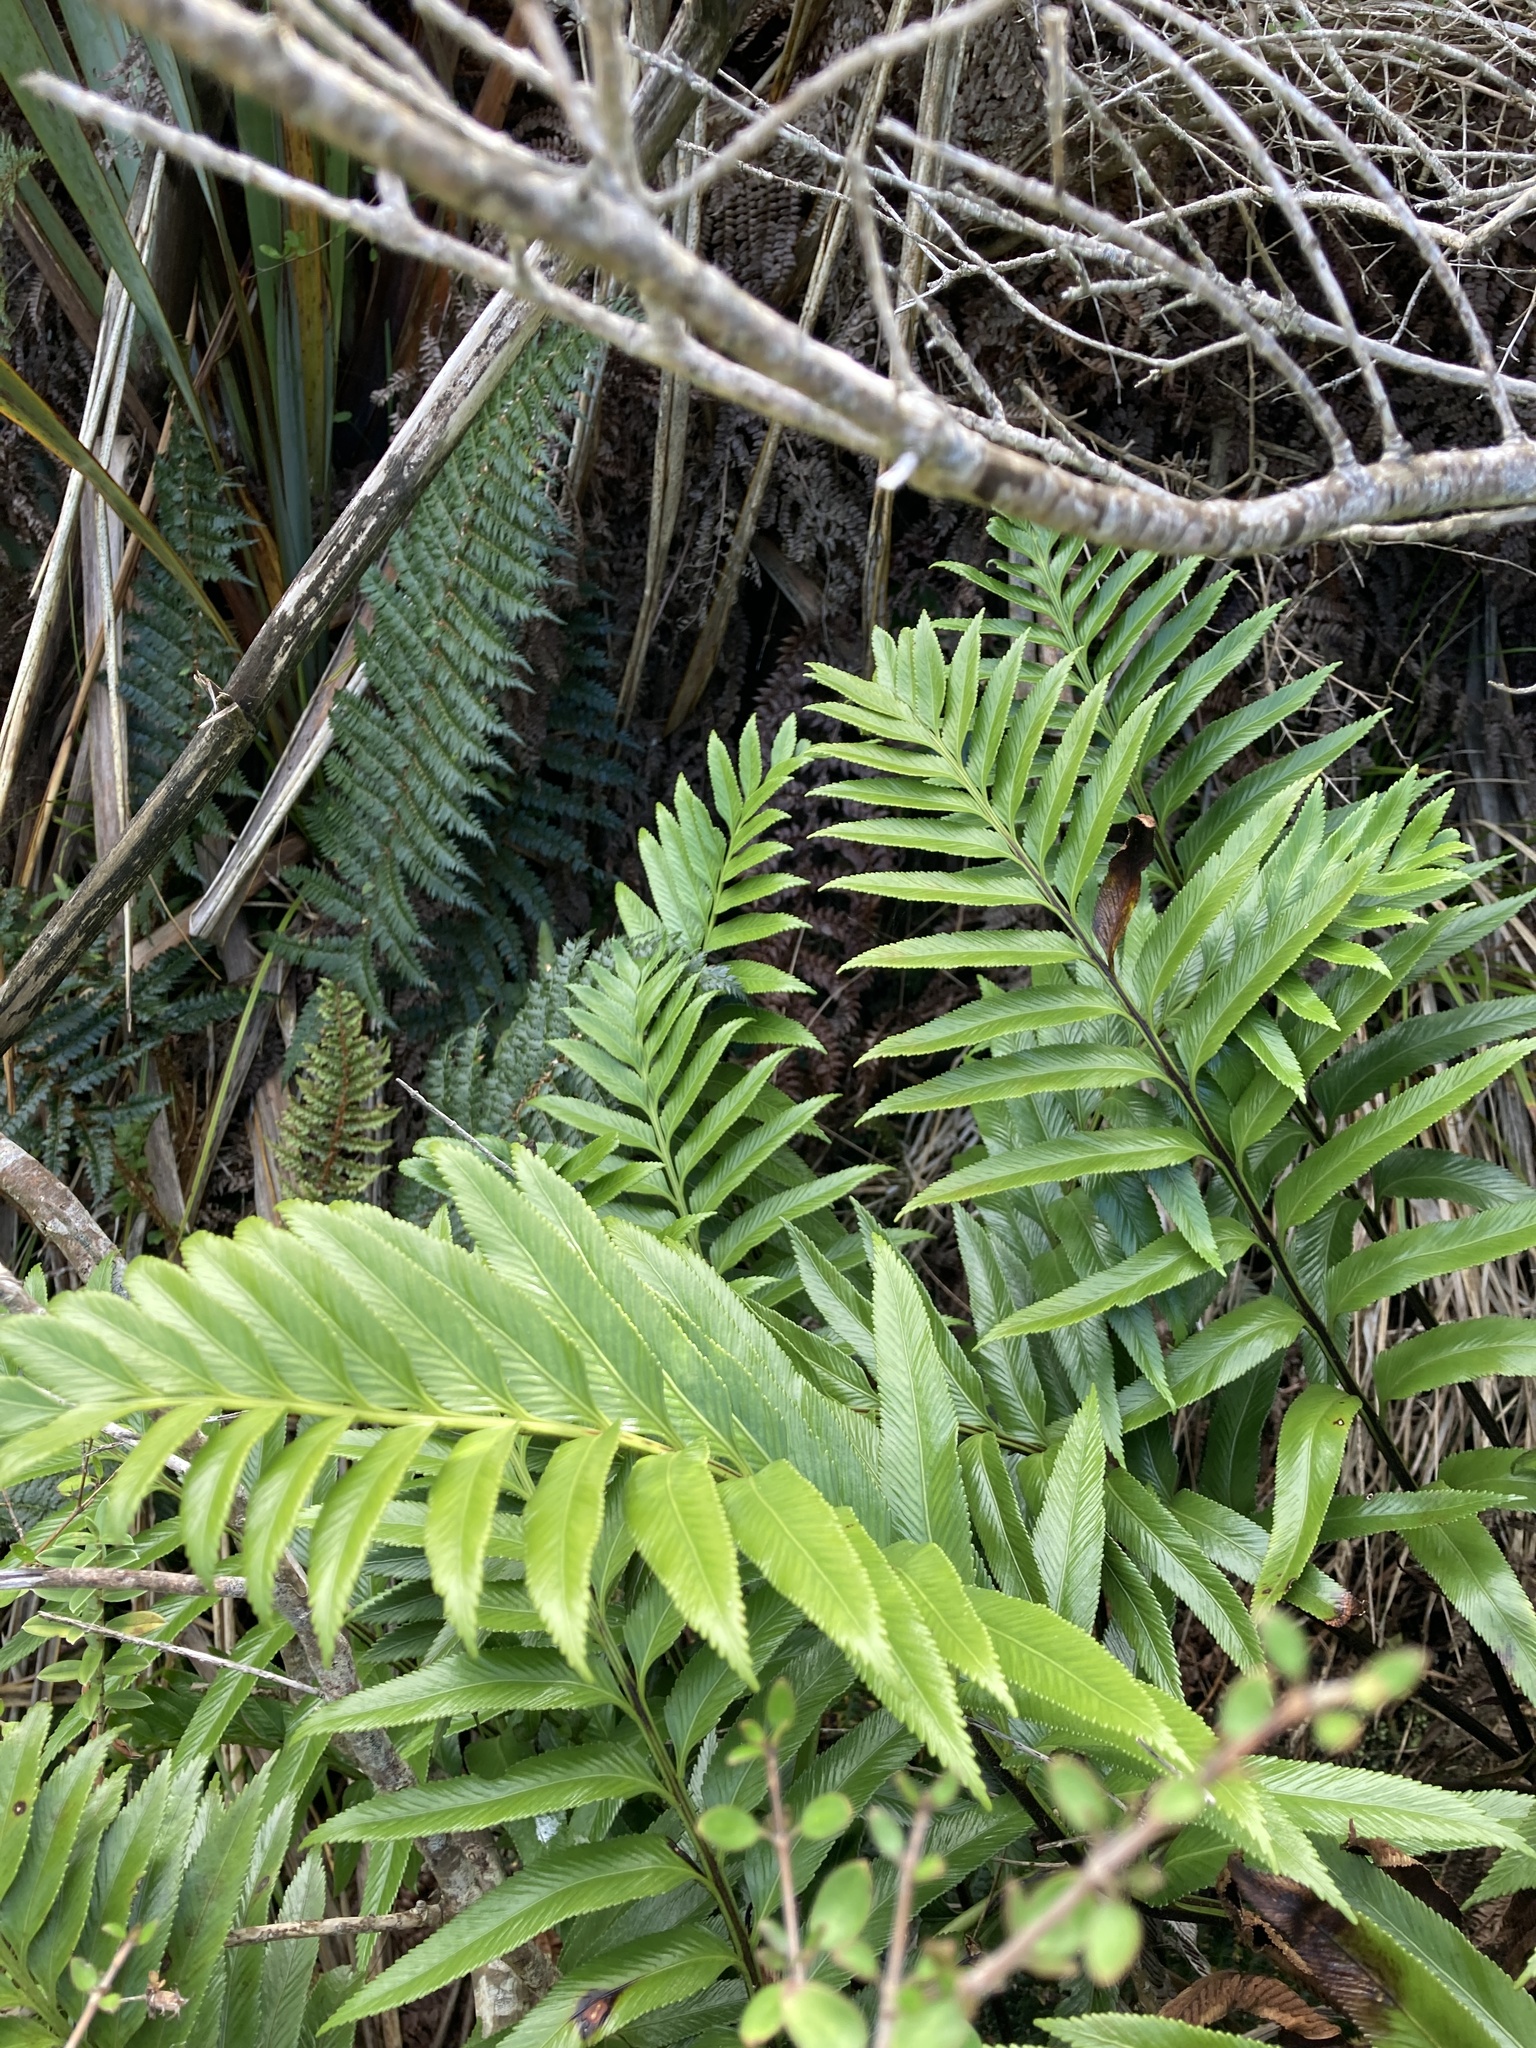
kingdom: Plantae
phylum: Tracheophyta
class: Polypodiopsida
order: Polypodiales
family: Aspleniaceae
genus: Asplenium
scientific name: Asplenium obtusatum
